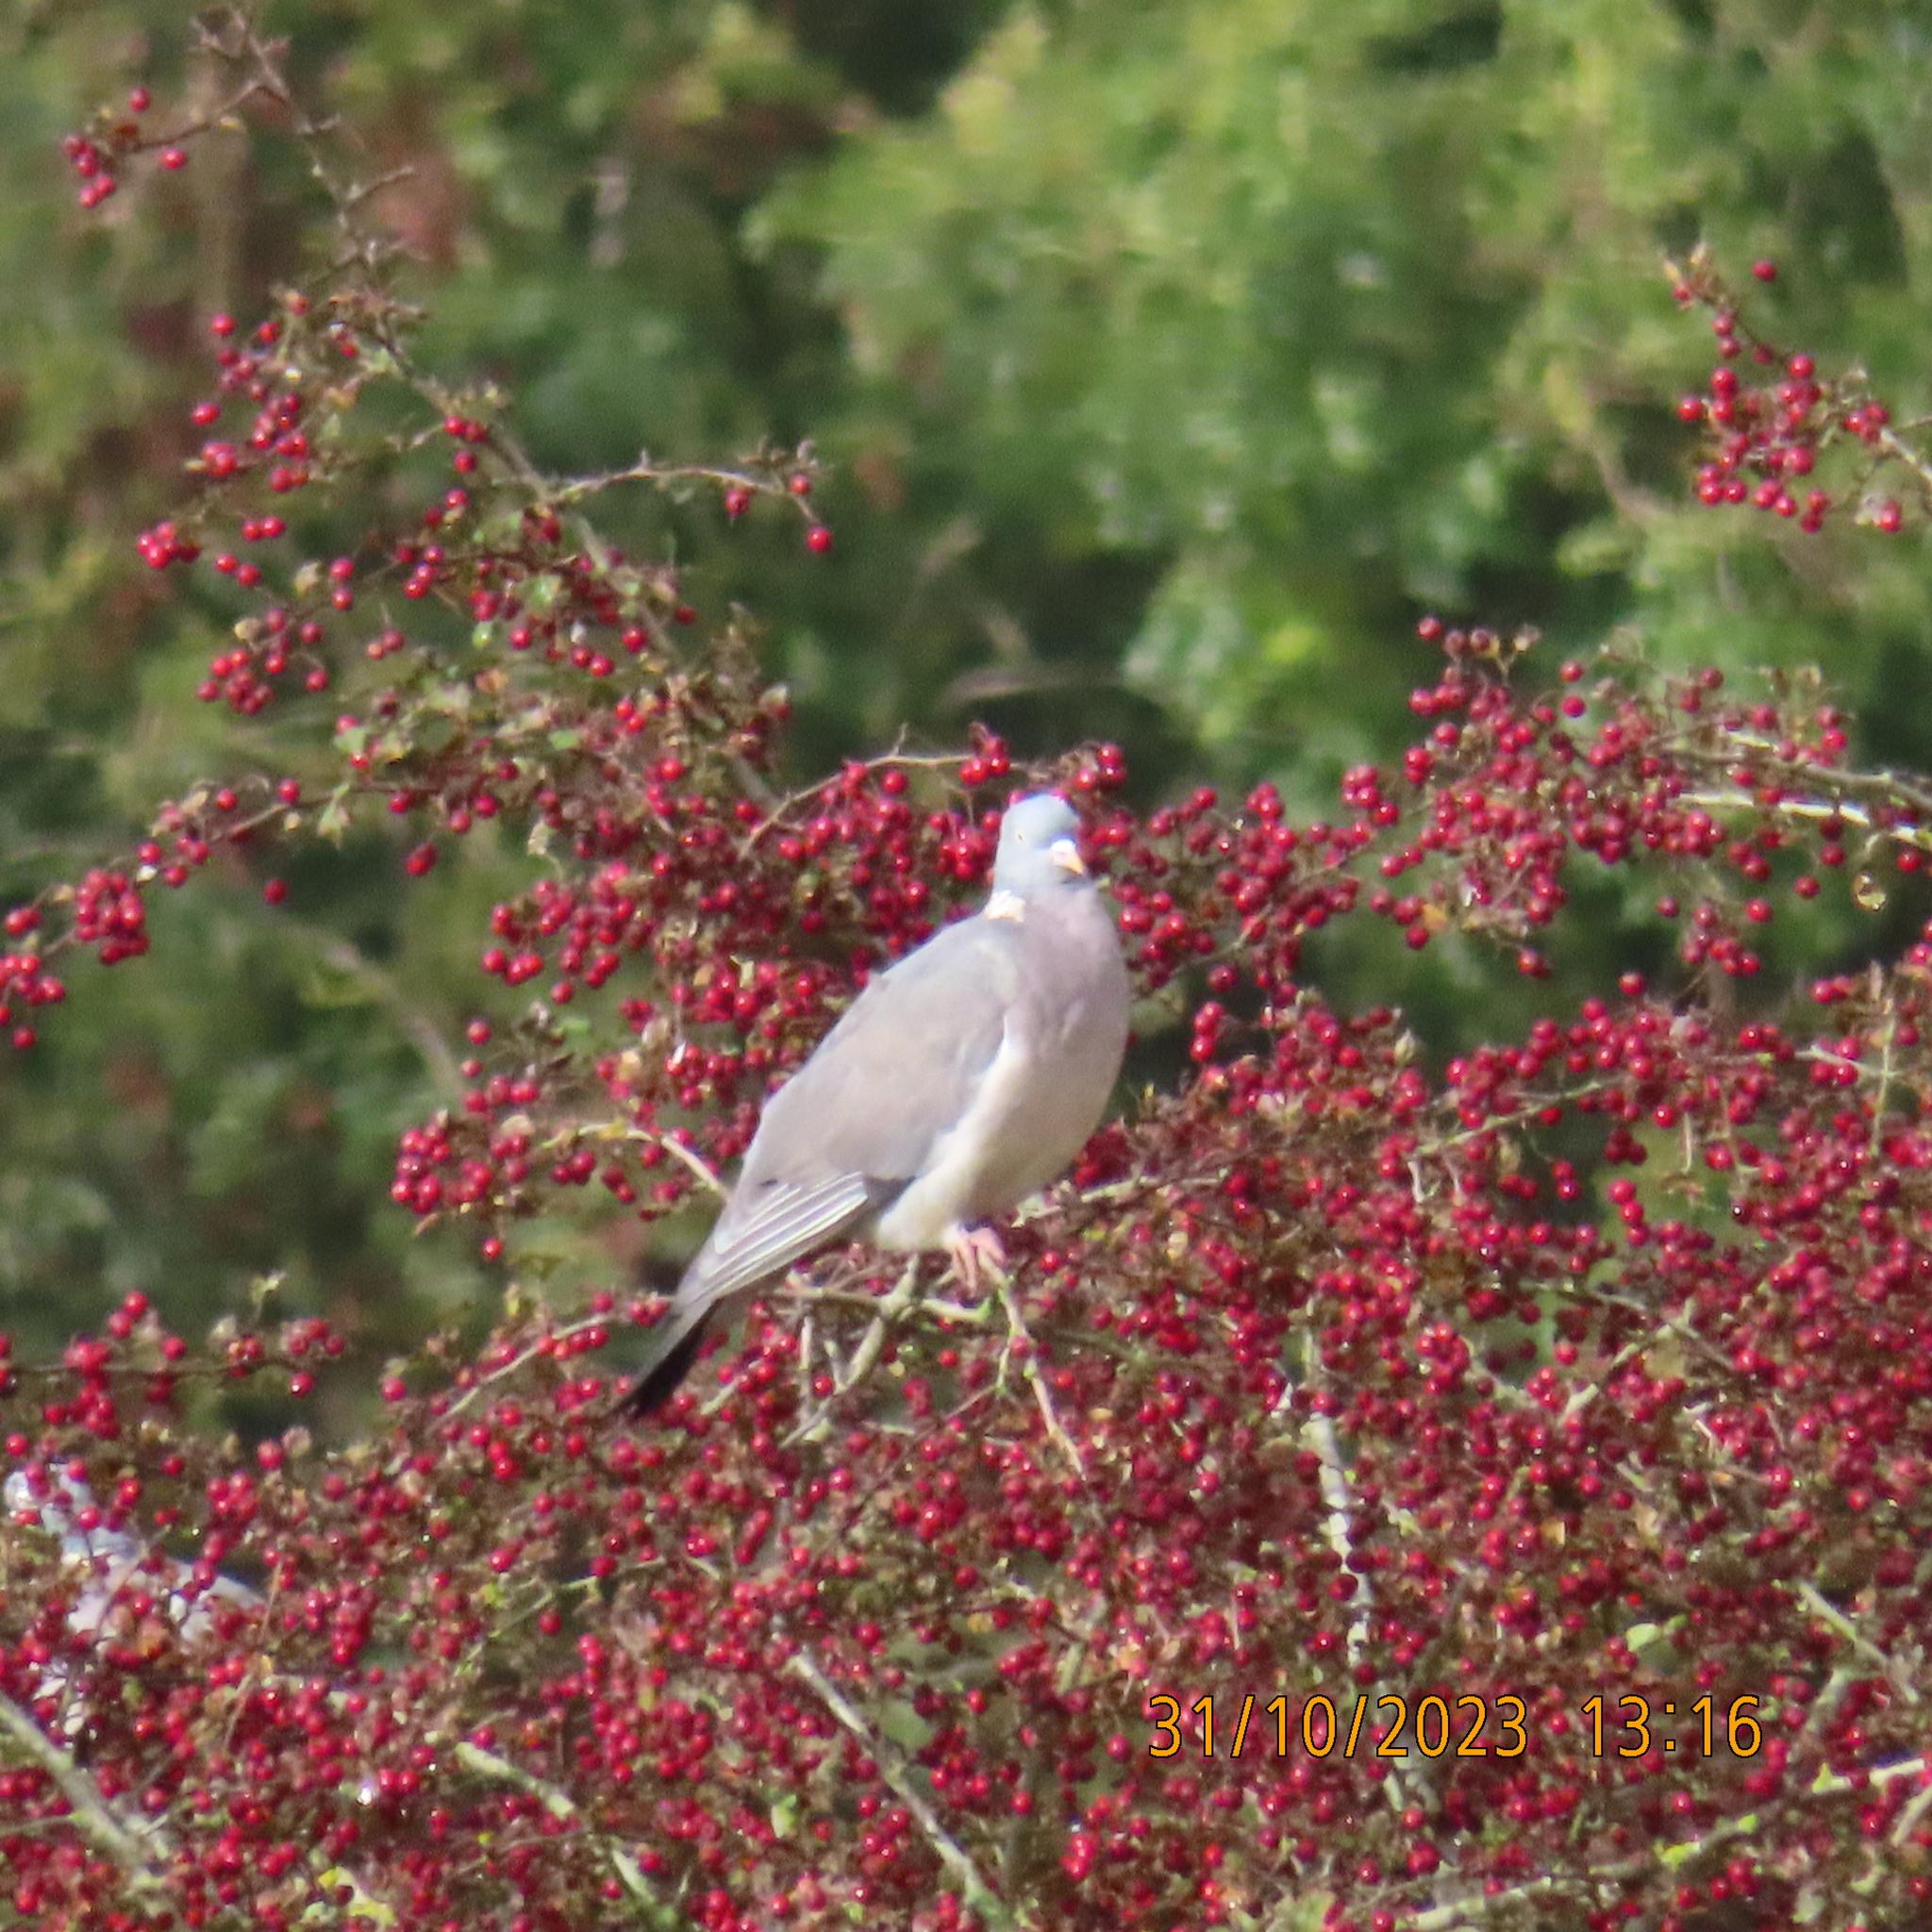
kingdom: Animalia
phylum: Chordata
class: Aves
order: Columbiformes
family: Columbidae
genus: Columba
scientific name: Columba palumbus
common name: Common wood pigeon
